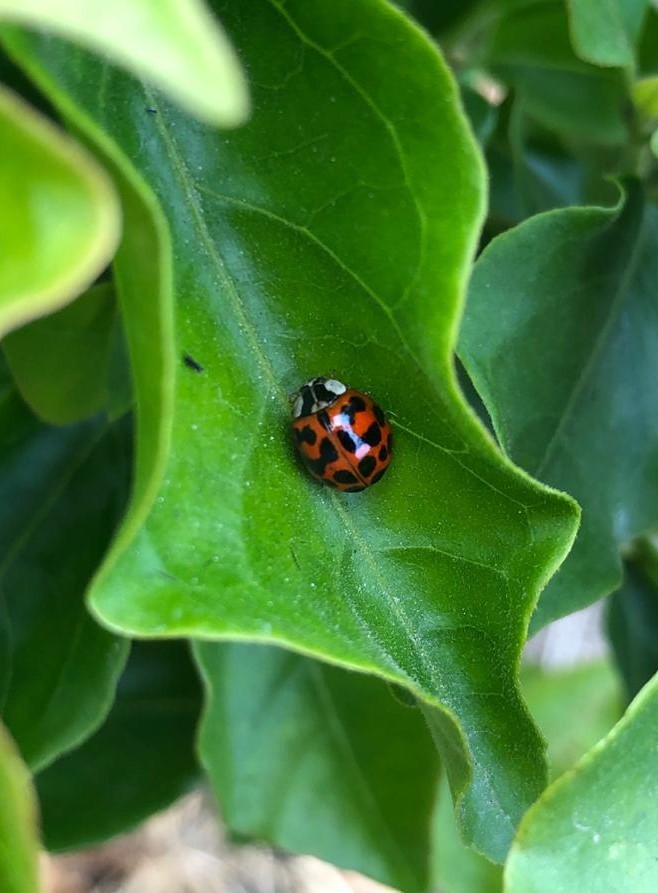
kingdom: Animalia
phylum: Arthropoda
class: Insecta
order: Coleoptera
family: Coccinellidae
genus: Harmonia
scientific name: Harmonia axyridis
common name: Harlequin ladybird
